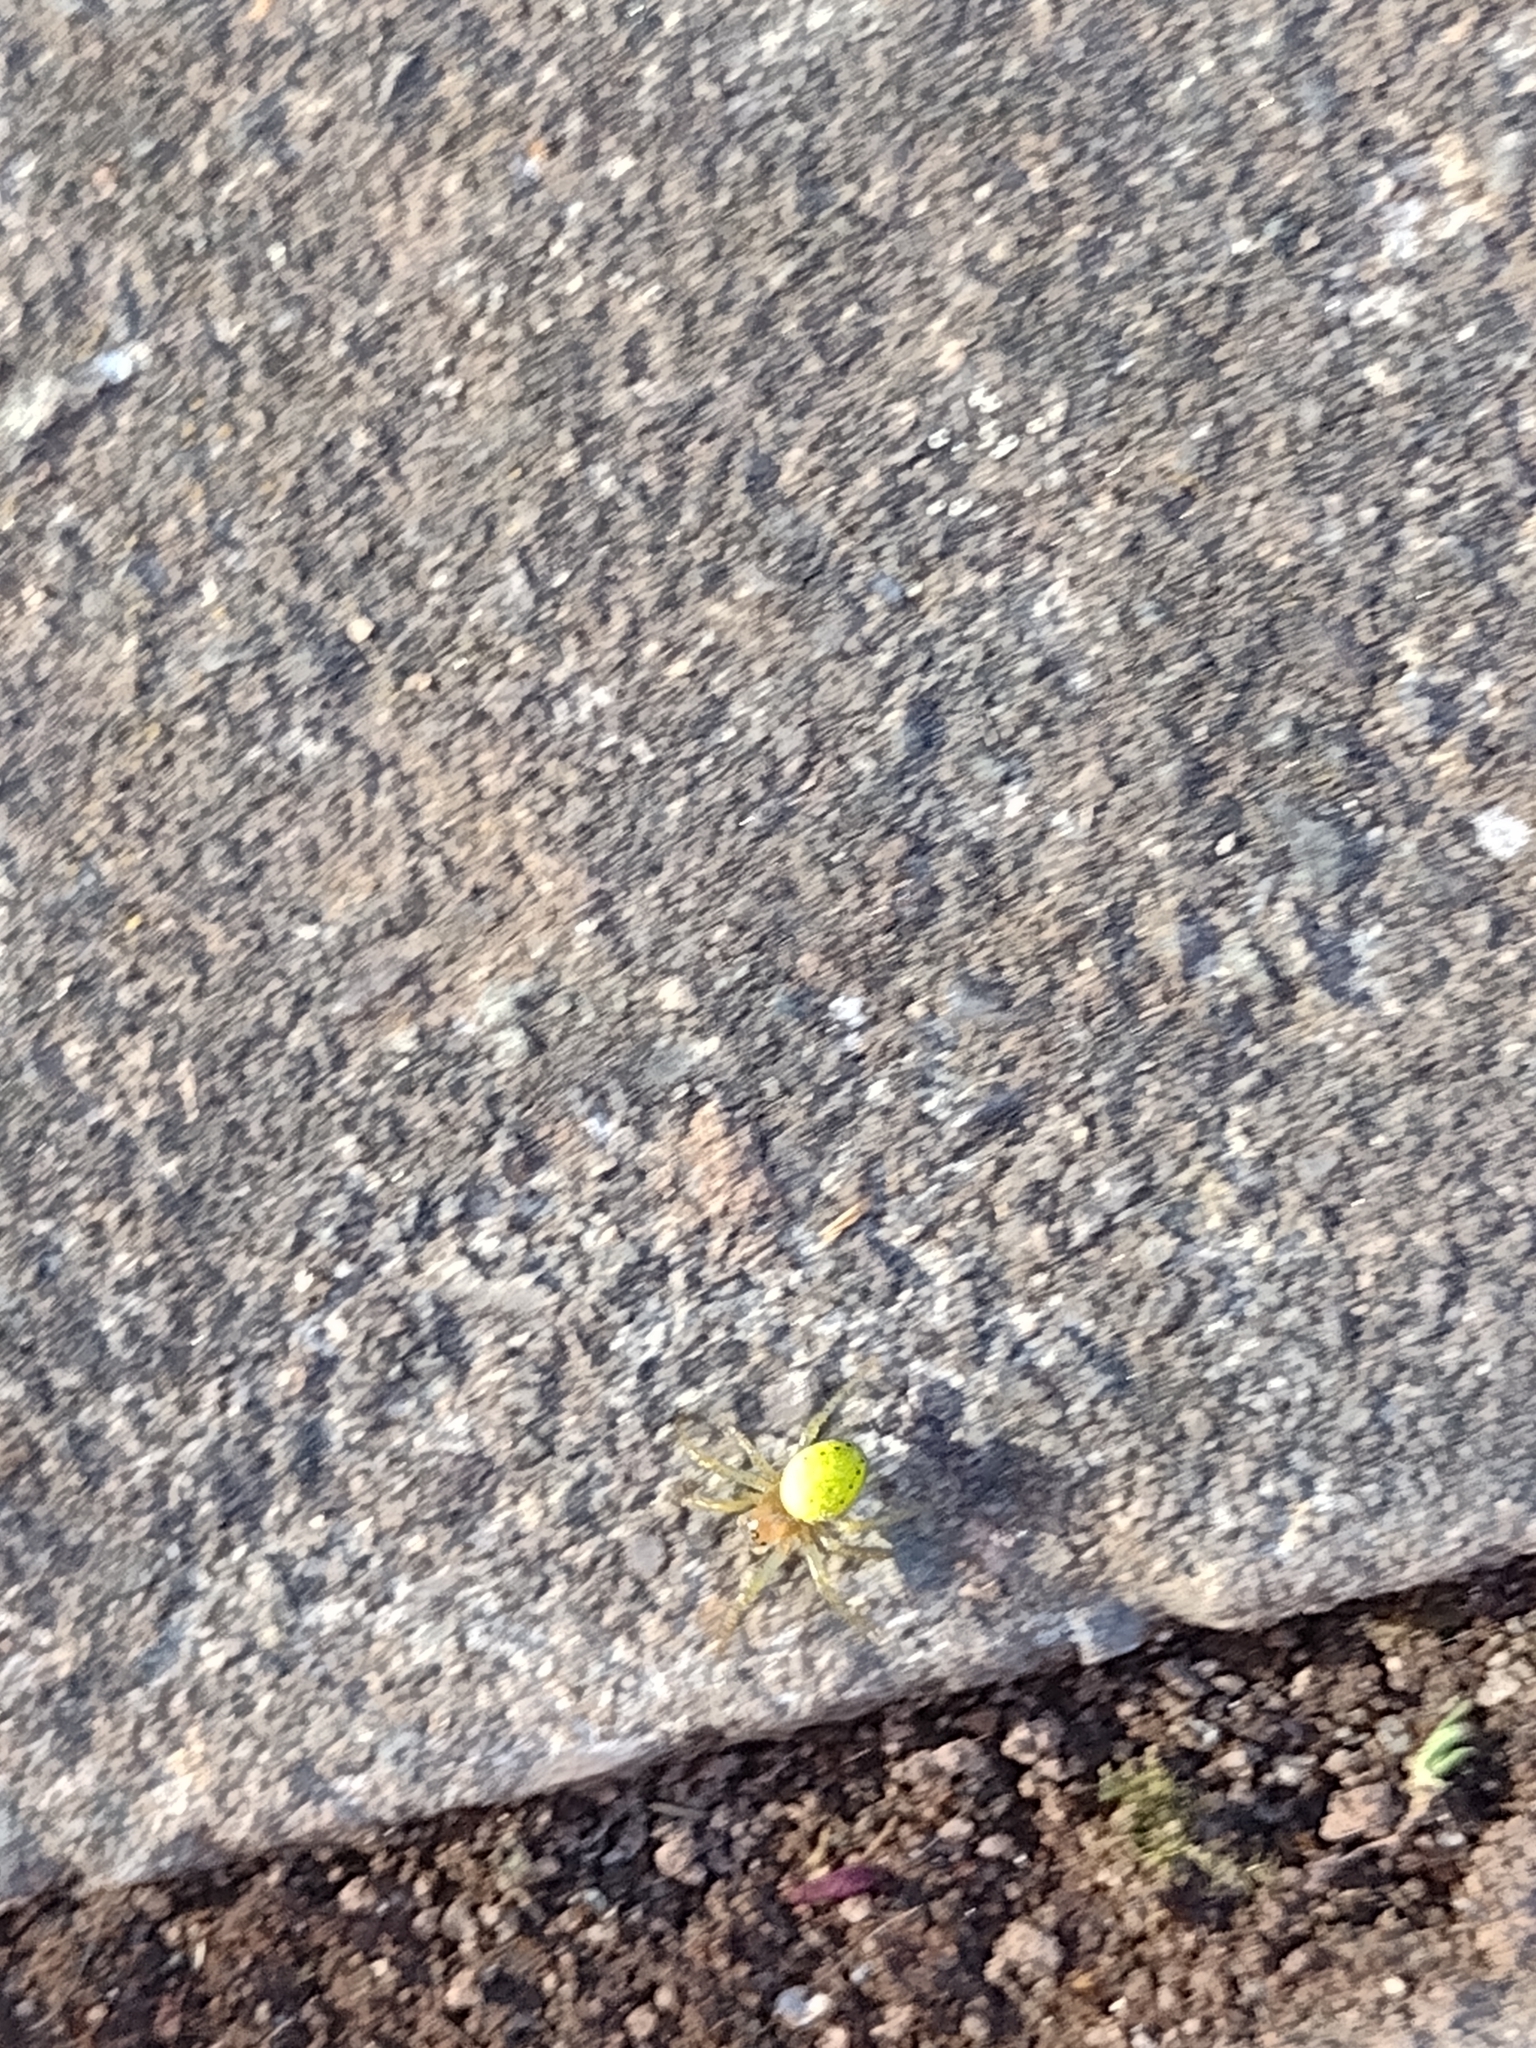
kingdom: Animalia
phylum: Arthropoda
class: Arachnida
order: Araneae
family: Araneidae
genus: Araniella
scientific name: Araniella cucurbitina
